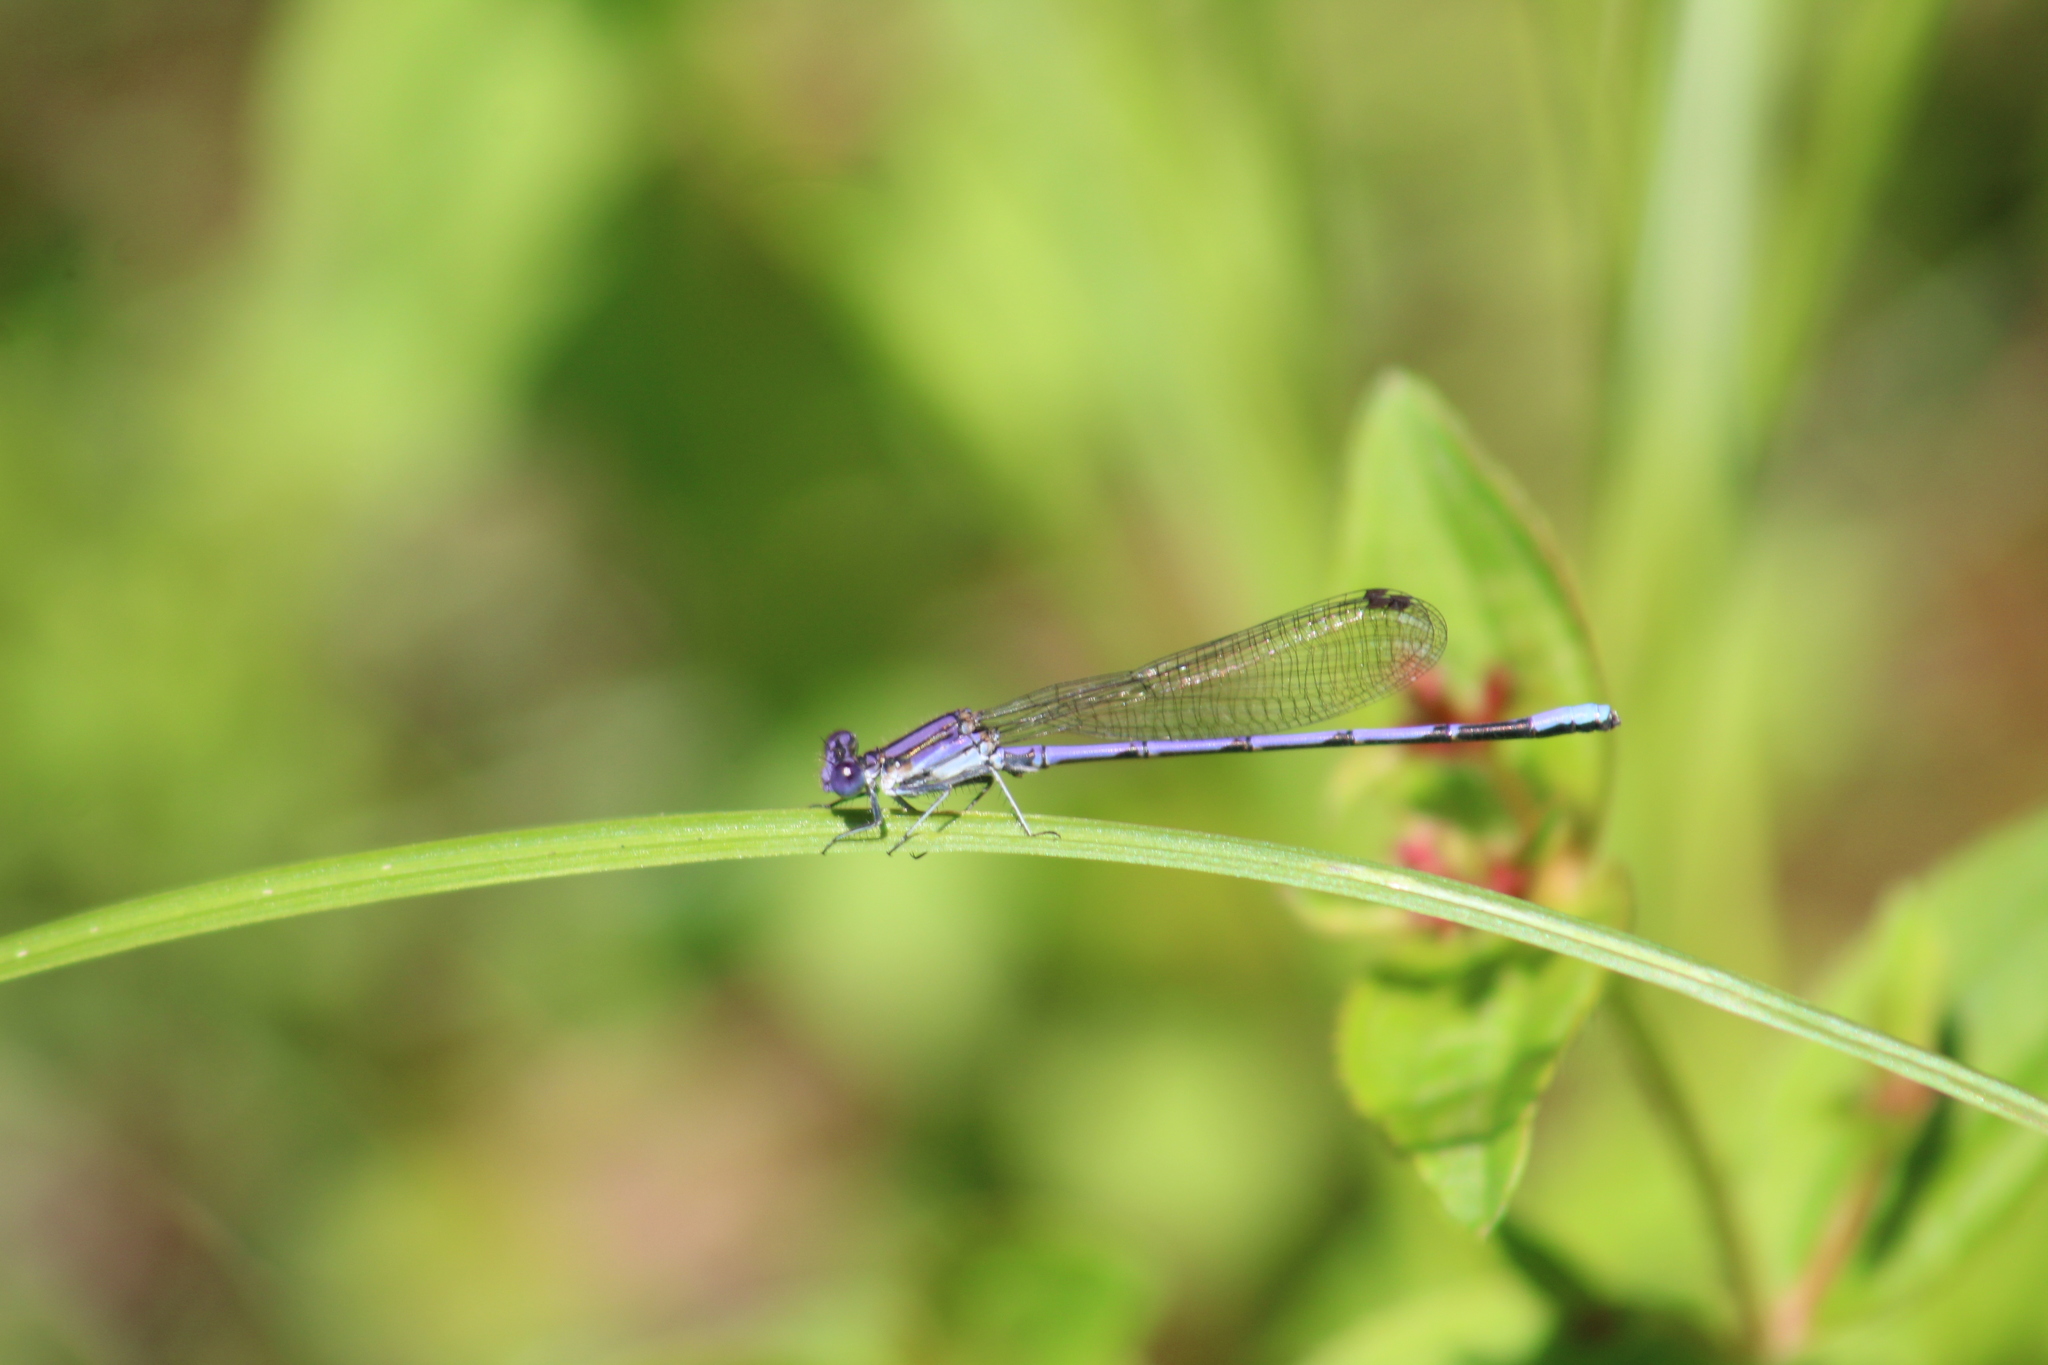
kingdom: Animalia
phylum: Arthropoda
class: Insecta
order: Odonata
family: Coenagrionidae
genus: Argia
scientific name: Argia fumipennis
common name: Variable dancer
